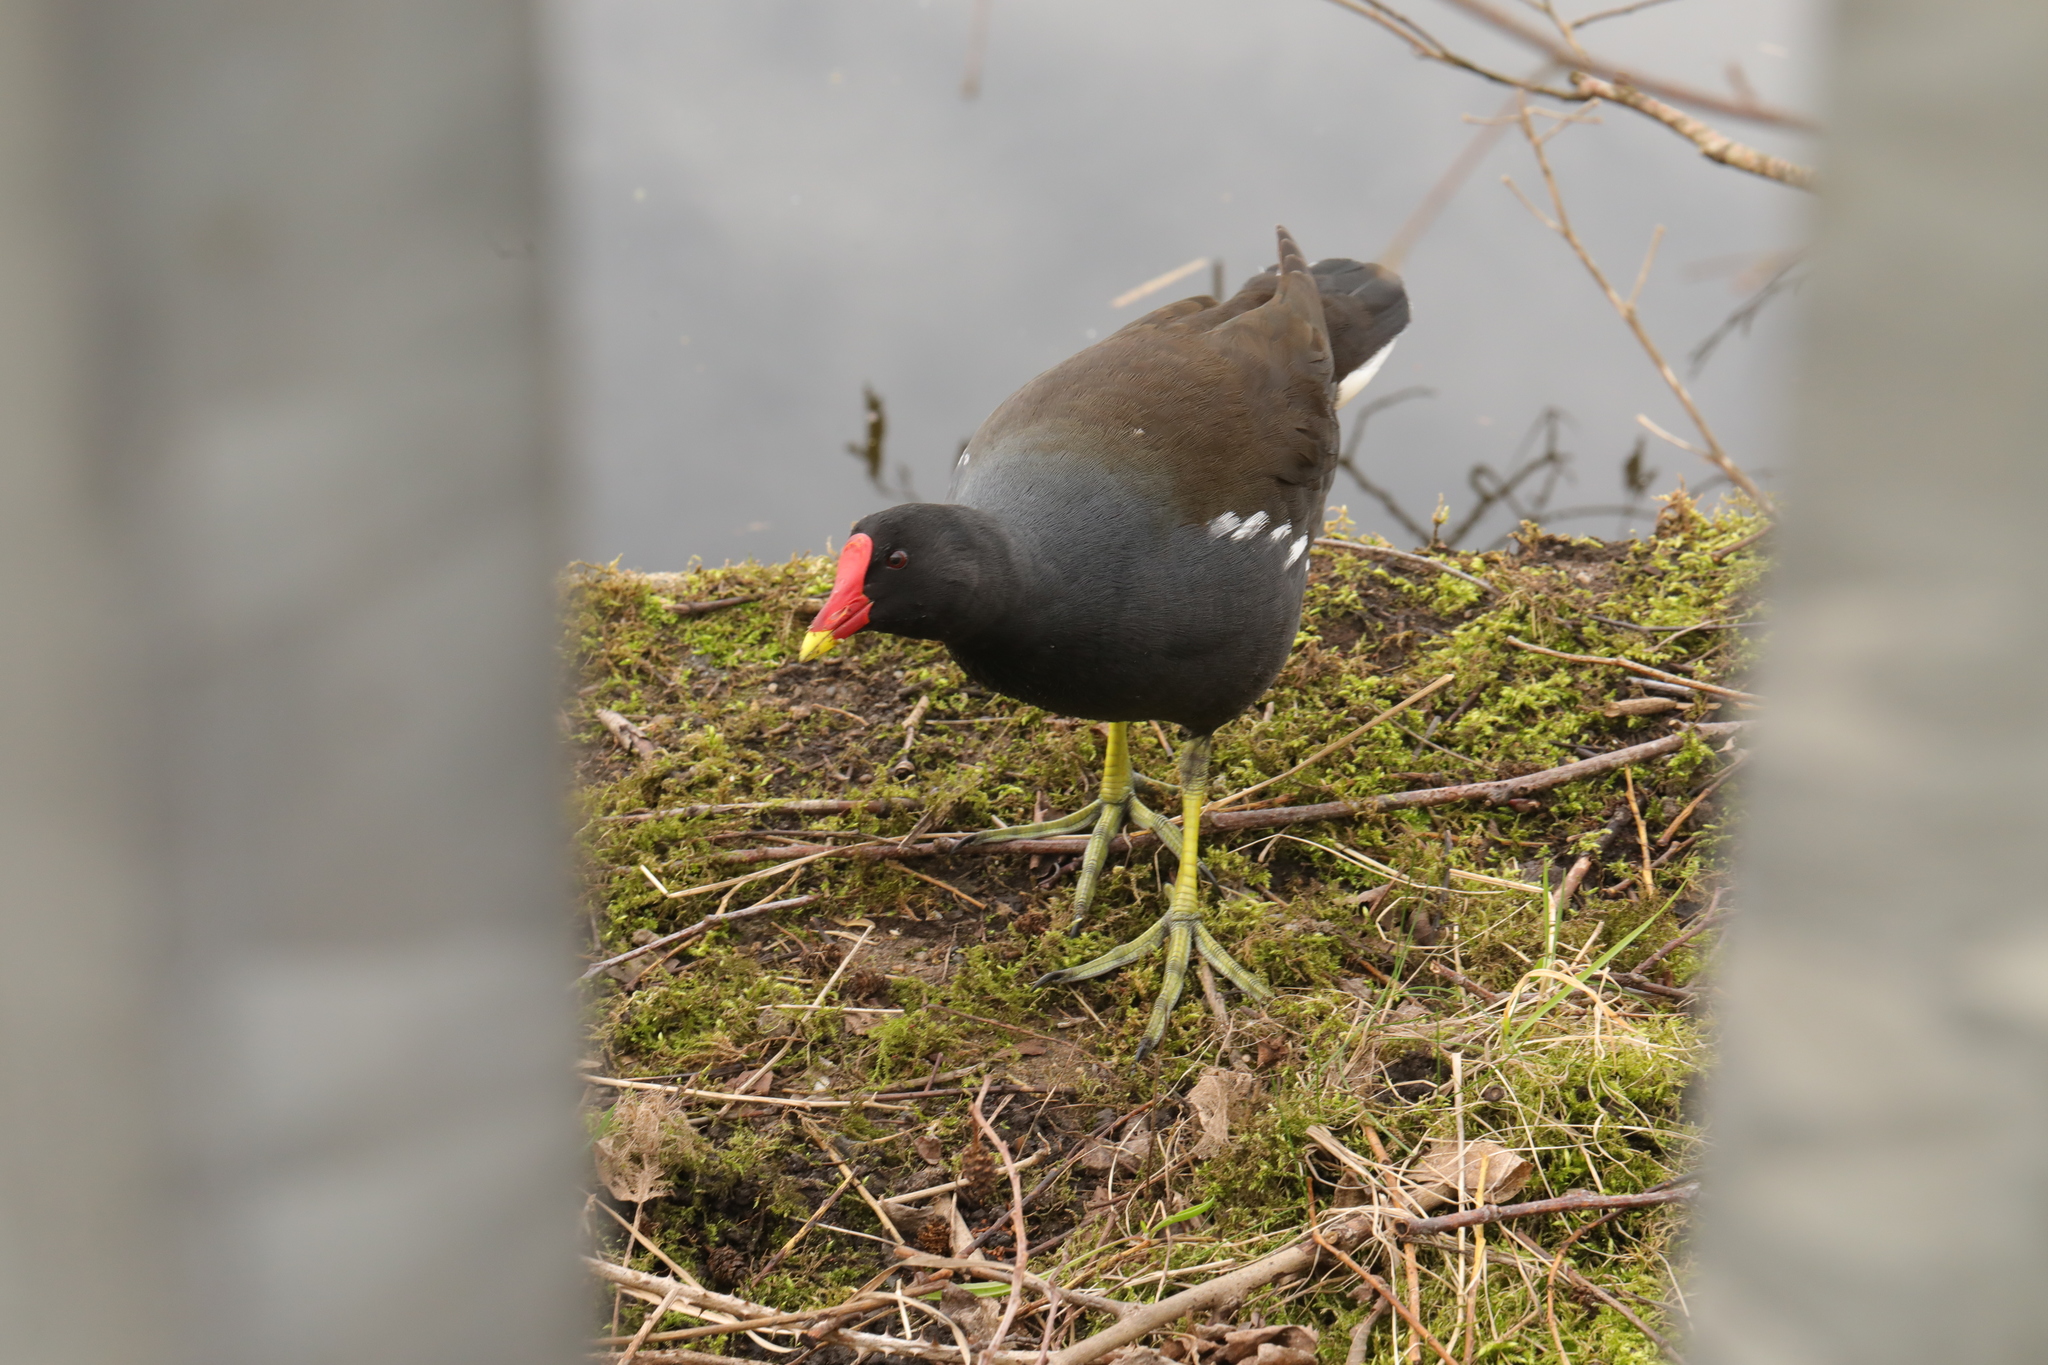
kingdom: Animalia
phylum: Chordata
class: Aves
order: Gruiformes
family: Rallidae
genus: Gallinula
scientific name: Gallinula chloropus
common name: Common moorhen
